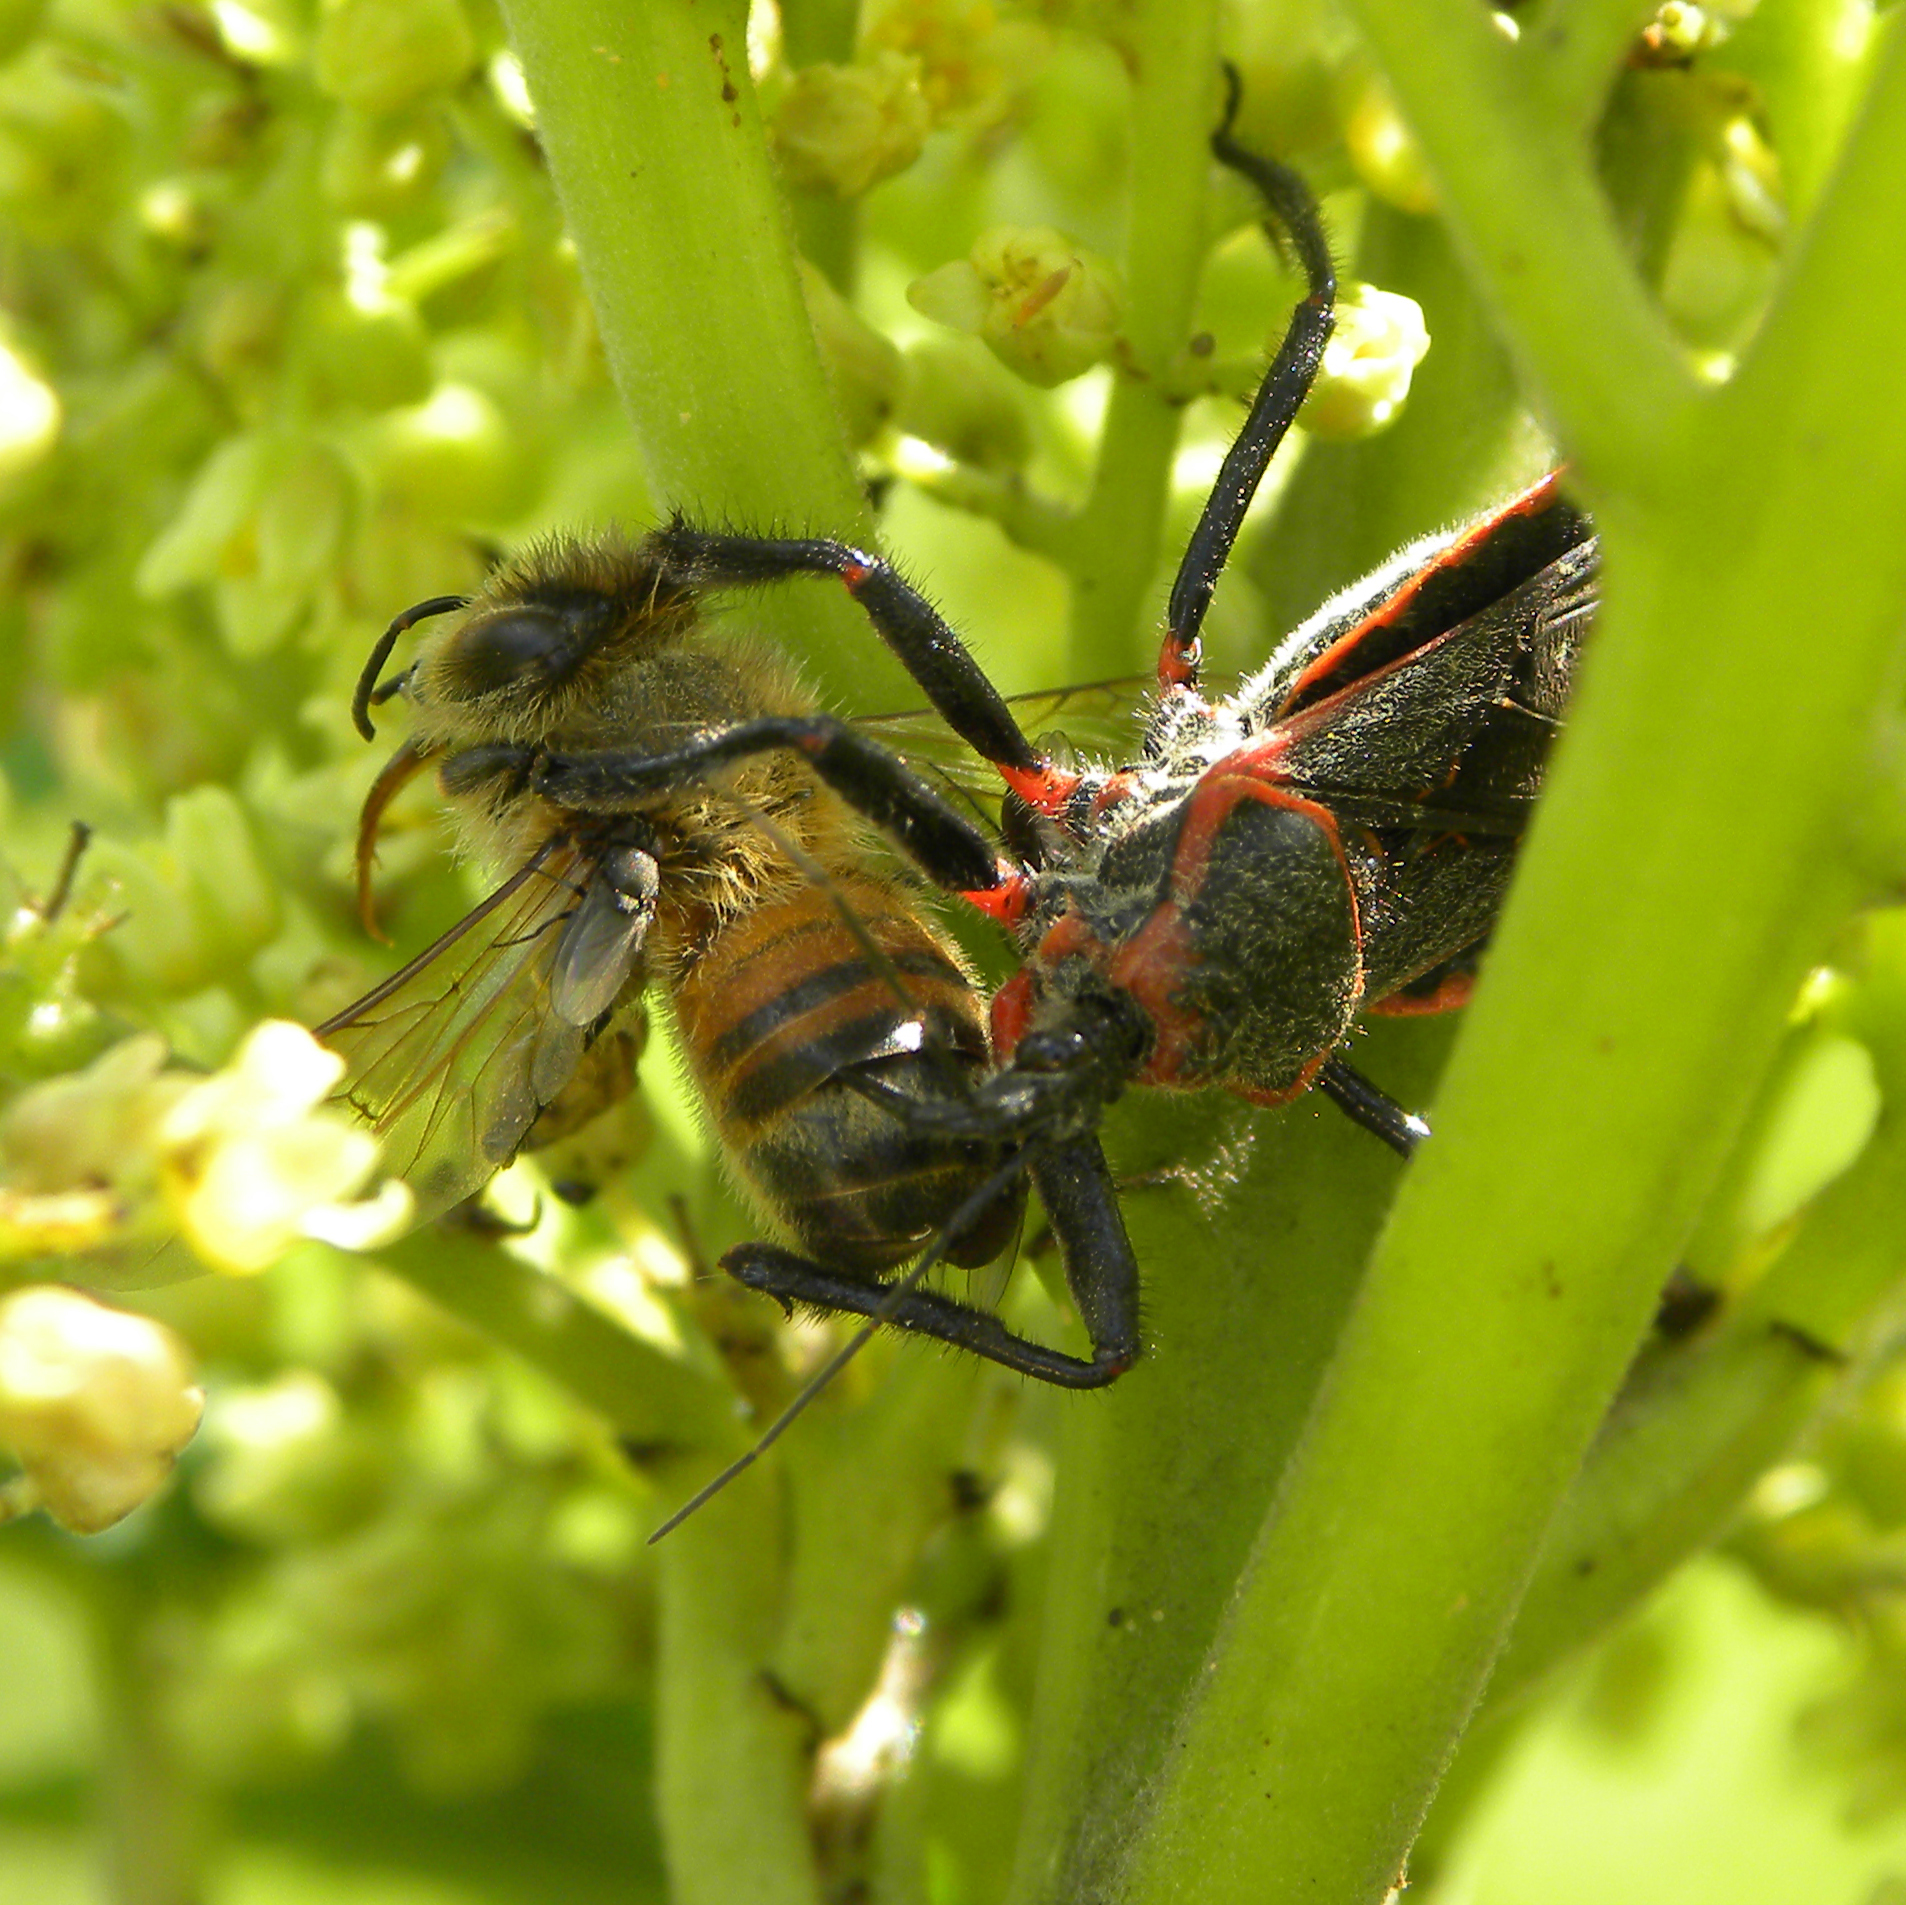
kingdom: Animalia
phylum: Arthropoda
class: Insecta
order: Hemiptera
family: Reduviidae
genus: Apiomerus
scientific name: Apiomerus crassipes
